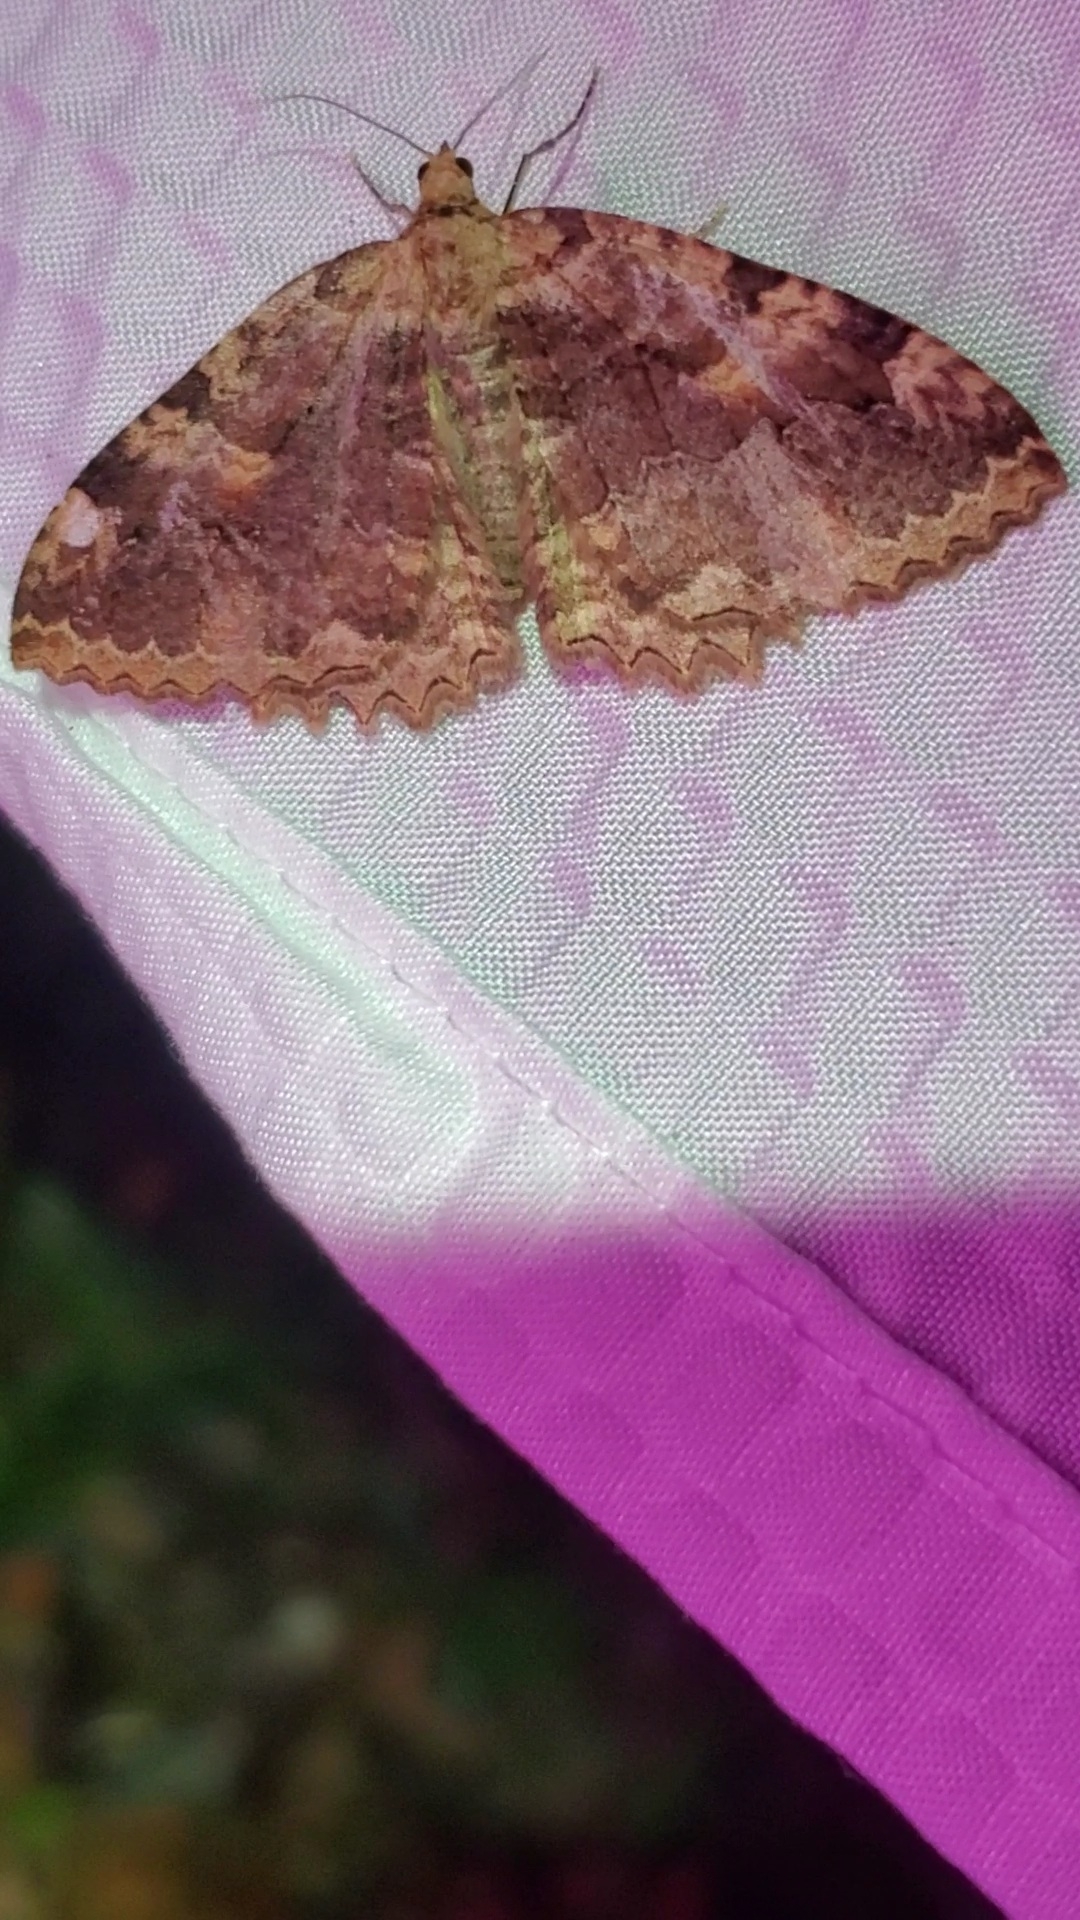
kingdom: Animalia
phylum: Arthropoda
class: Insecta
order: Lepidoptera
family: Geometridae
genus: Triphosa
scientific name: Triphosa haesitata
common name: Tissue moth
